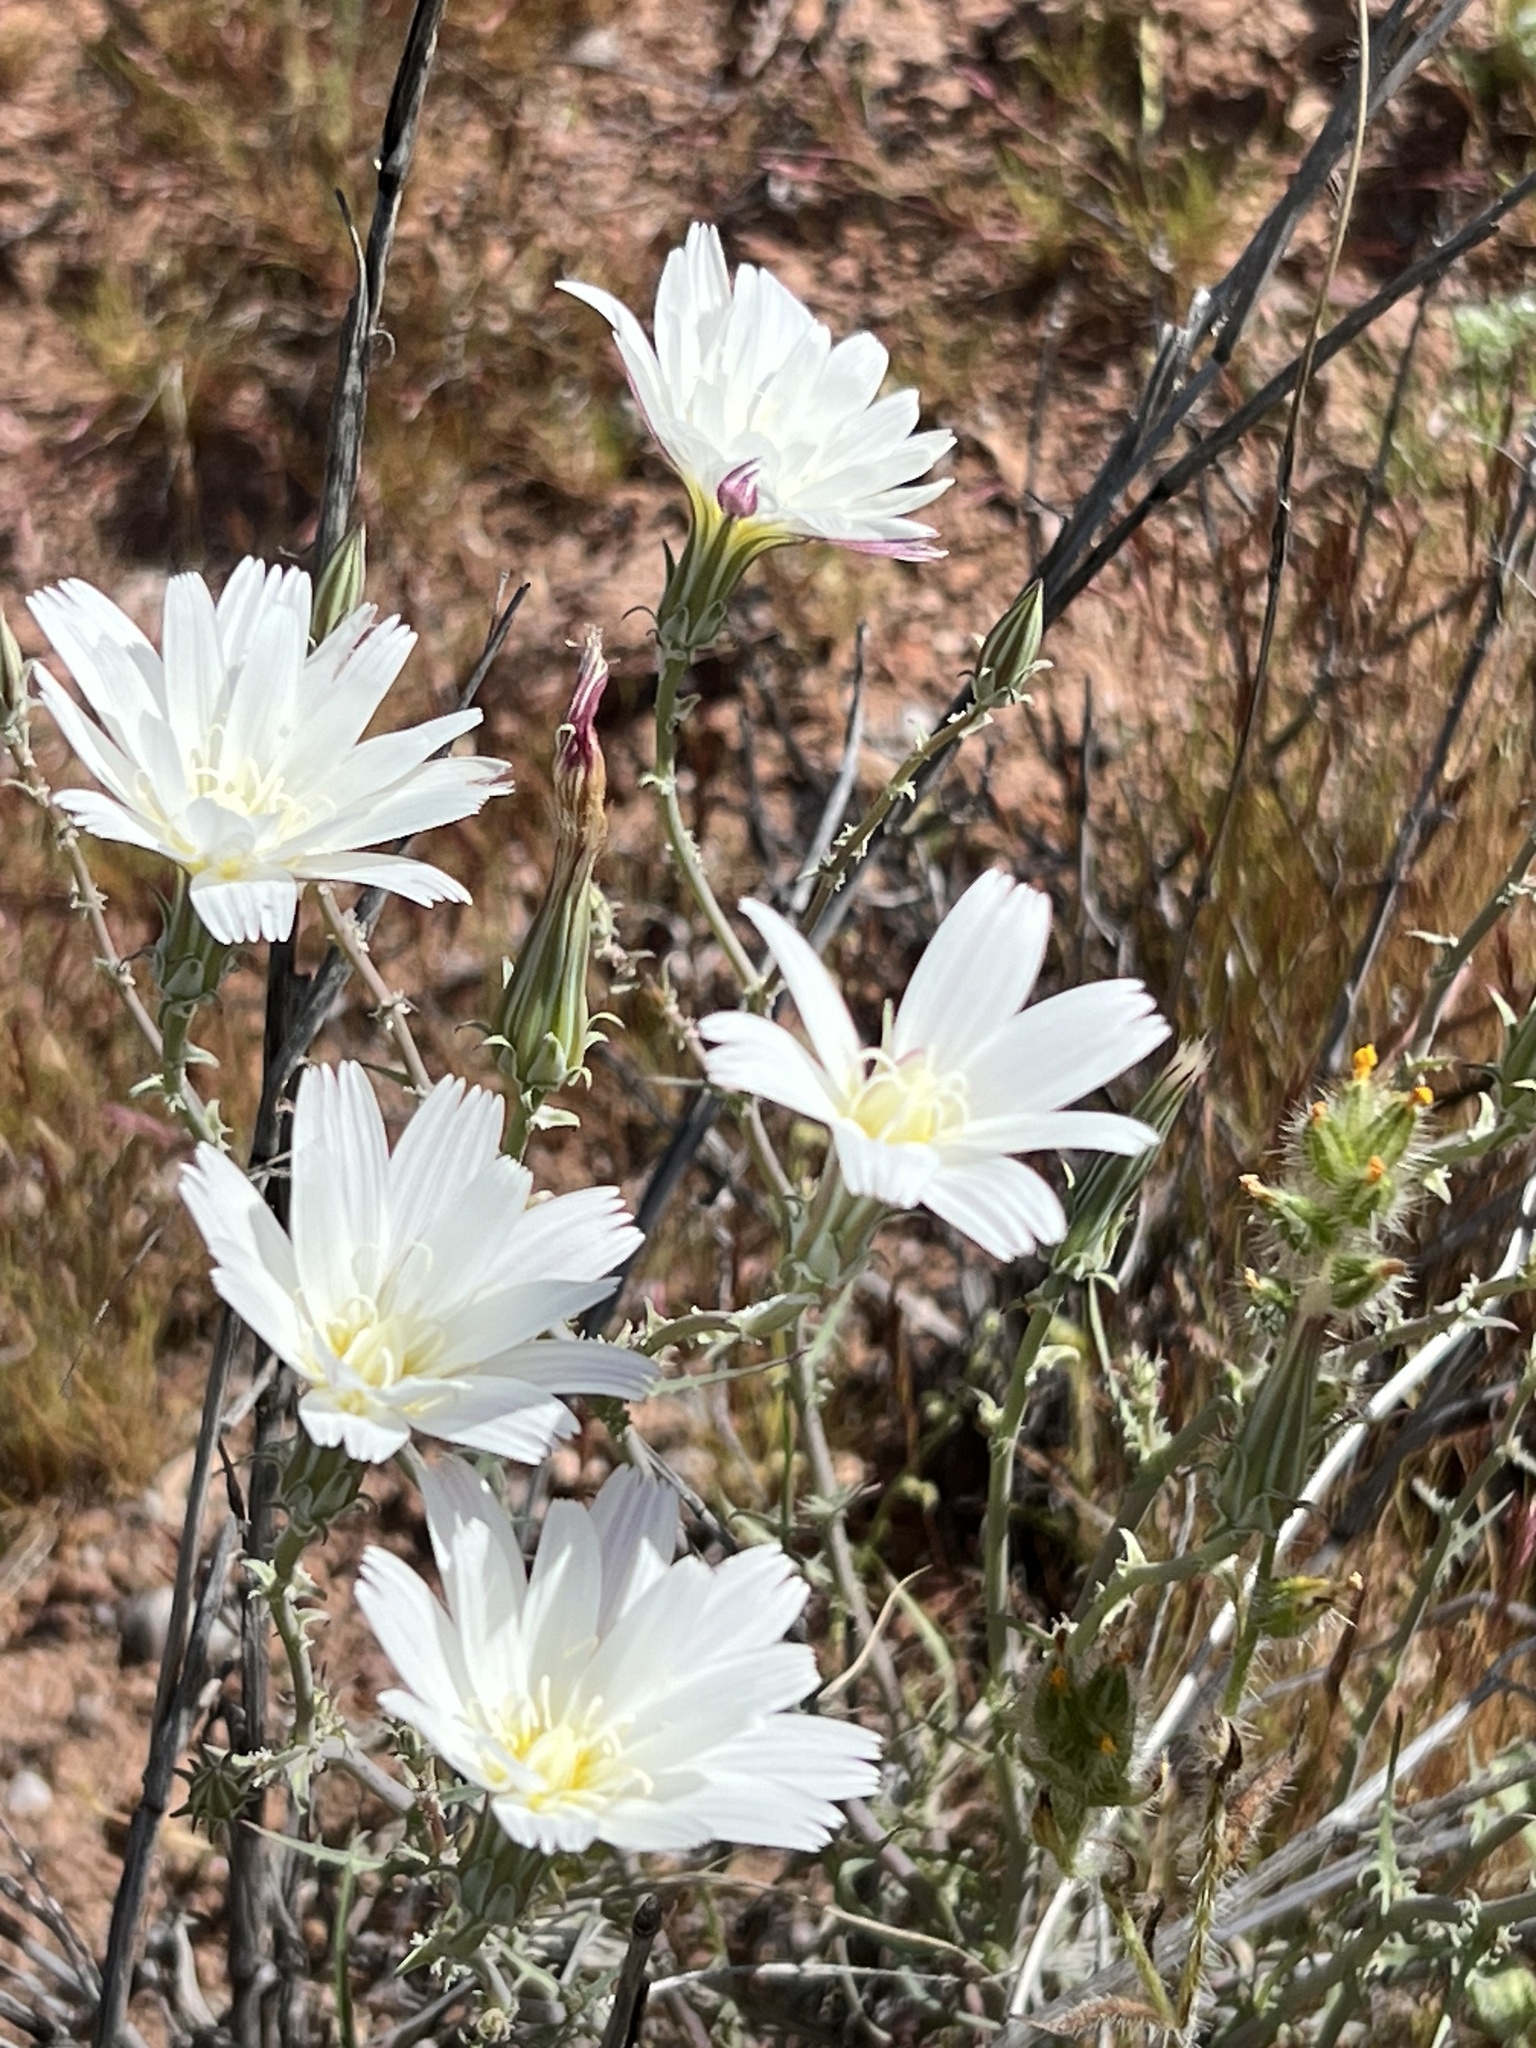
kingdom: Plantae
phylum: Tracheophyta
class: Magnoliopsida
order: Asterales
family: Asteraceae
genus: Rafinesquia
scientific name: Rafinesquia neomexicana
